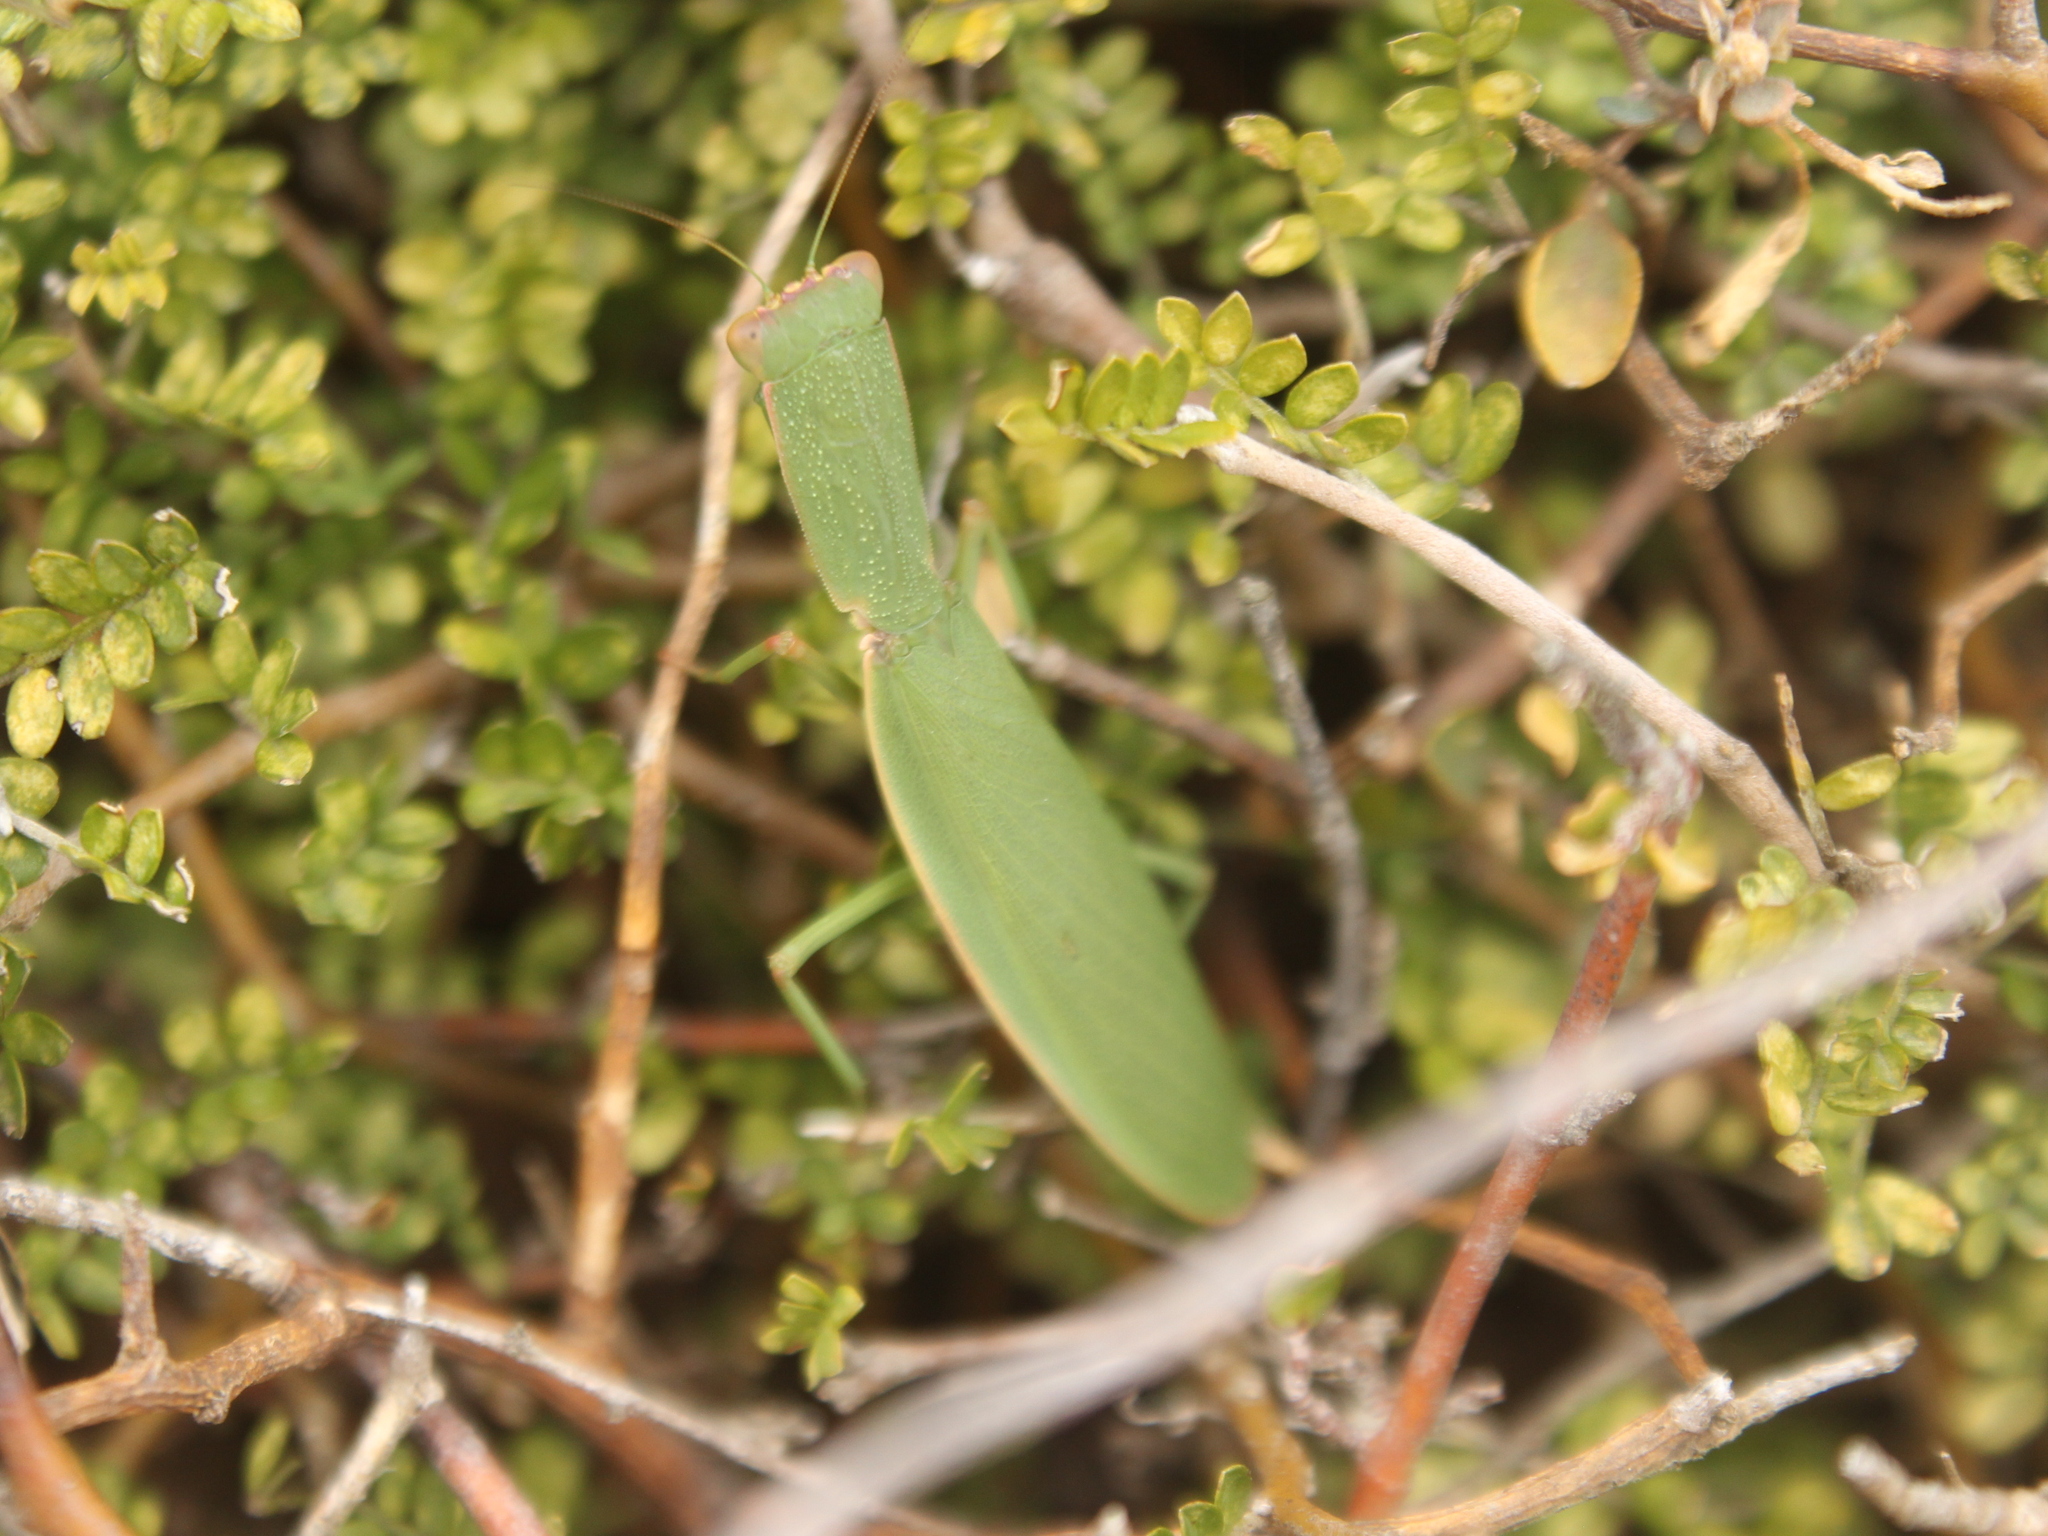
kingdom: Animalia
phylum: Arthropoda
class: Insecta
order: Mantodea
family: Mantidae
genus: Orthodera
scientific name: Orthodera novaezealandiae
